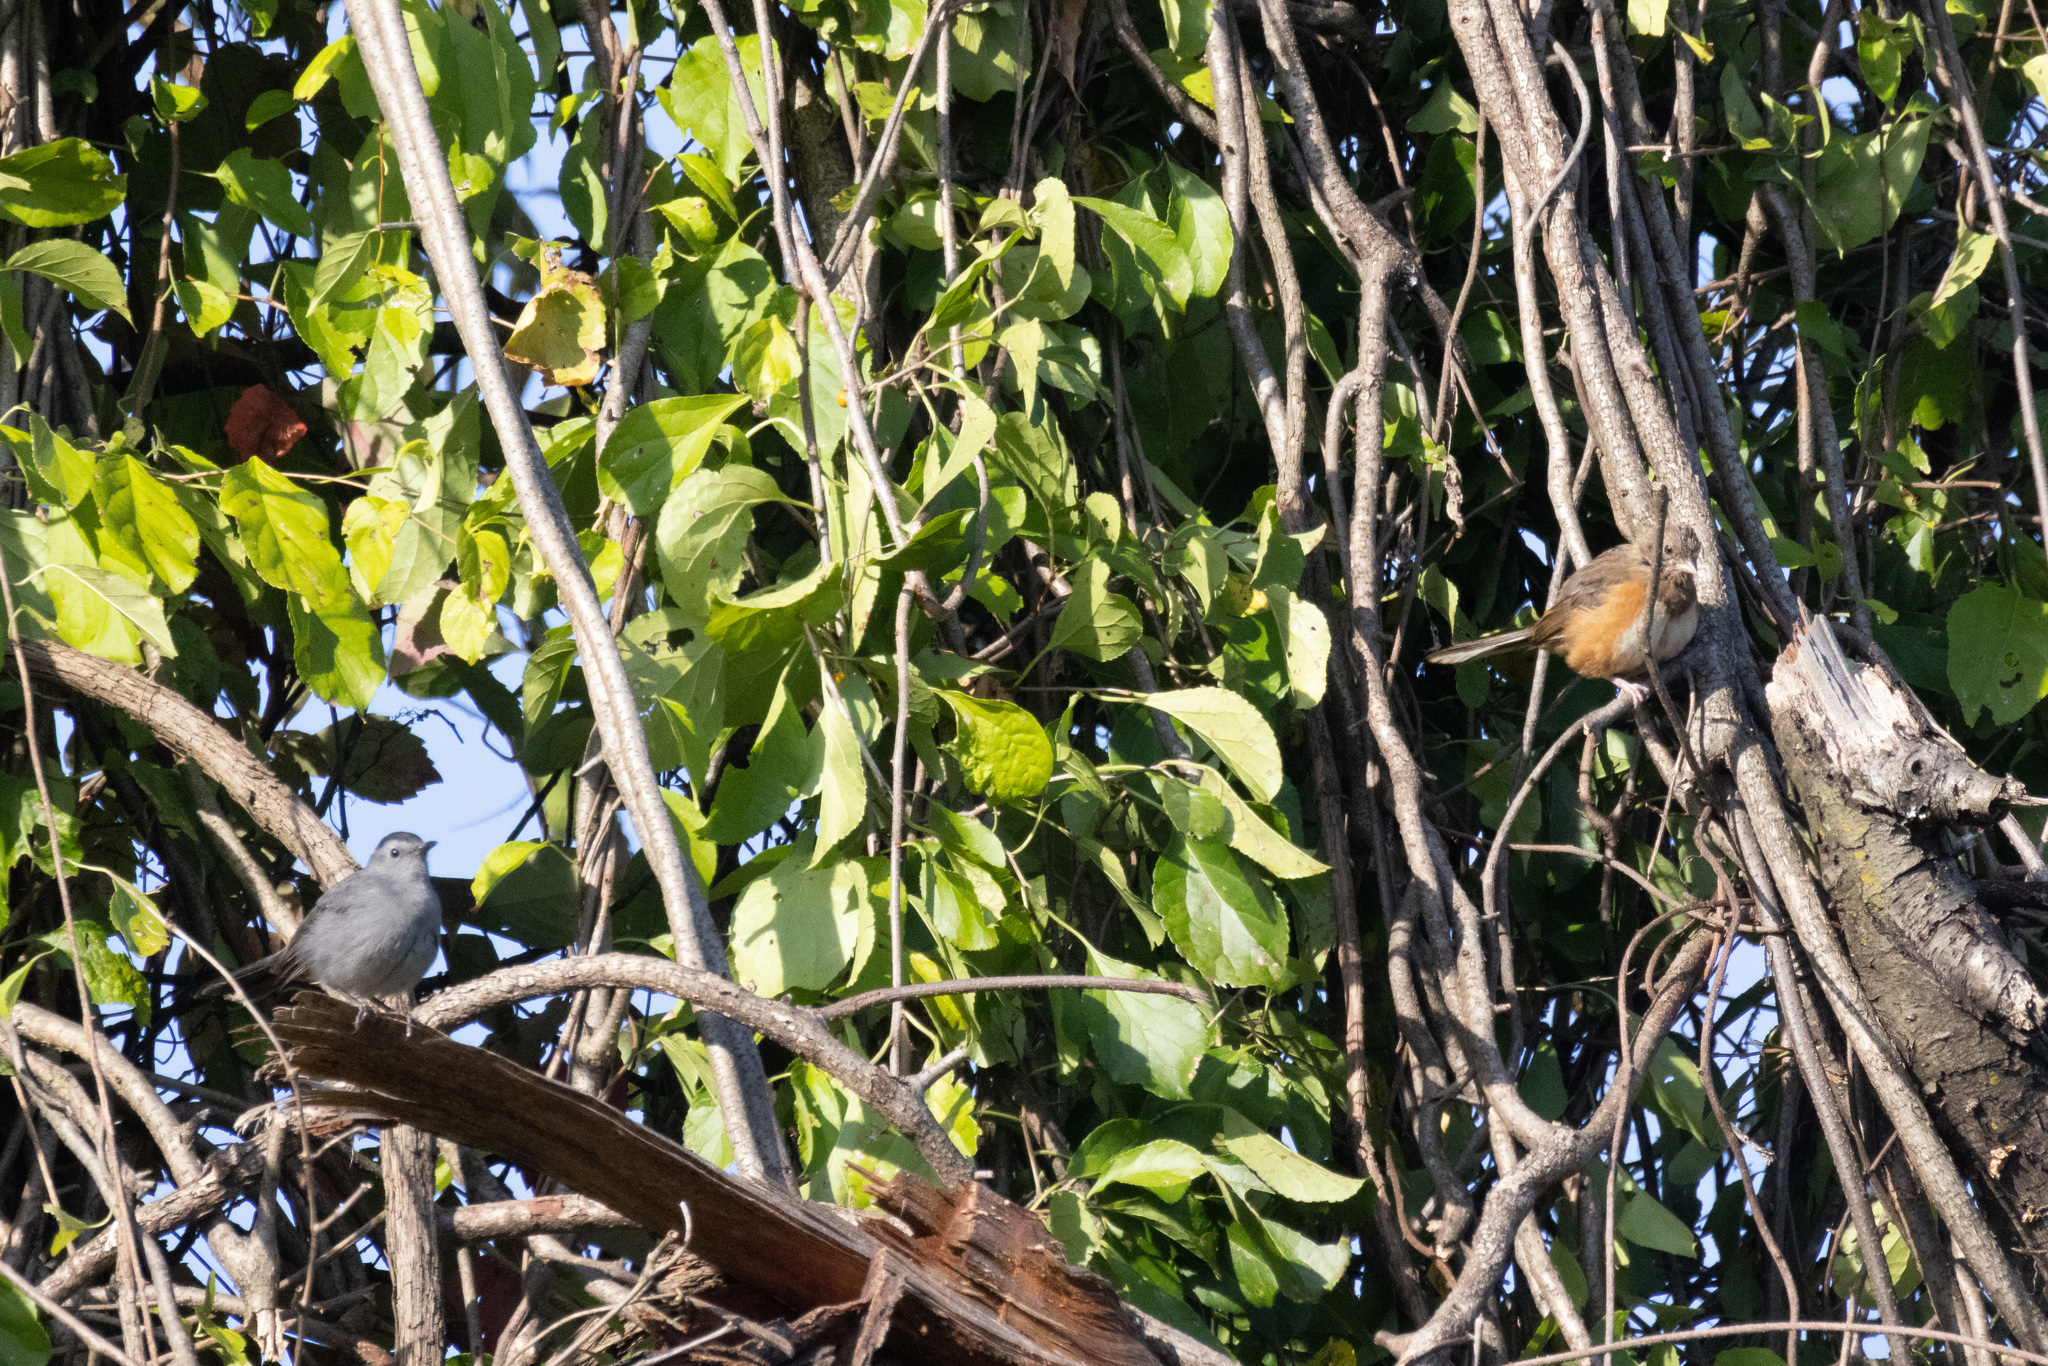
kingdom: Animalia
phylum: Chordata
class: Aves
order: Passeriformes
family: Mimidae
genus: Dumetella
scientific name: Dumetella carolinensis
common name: Gray catbird
